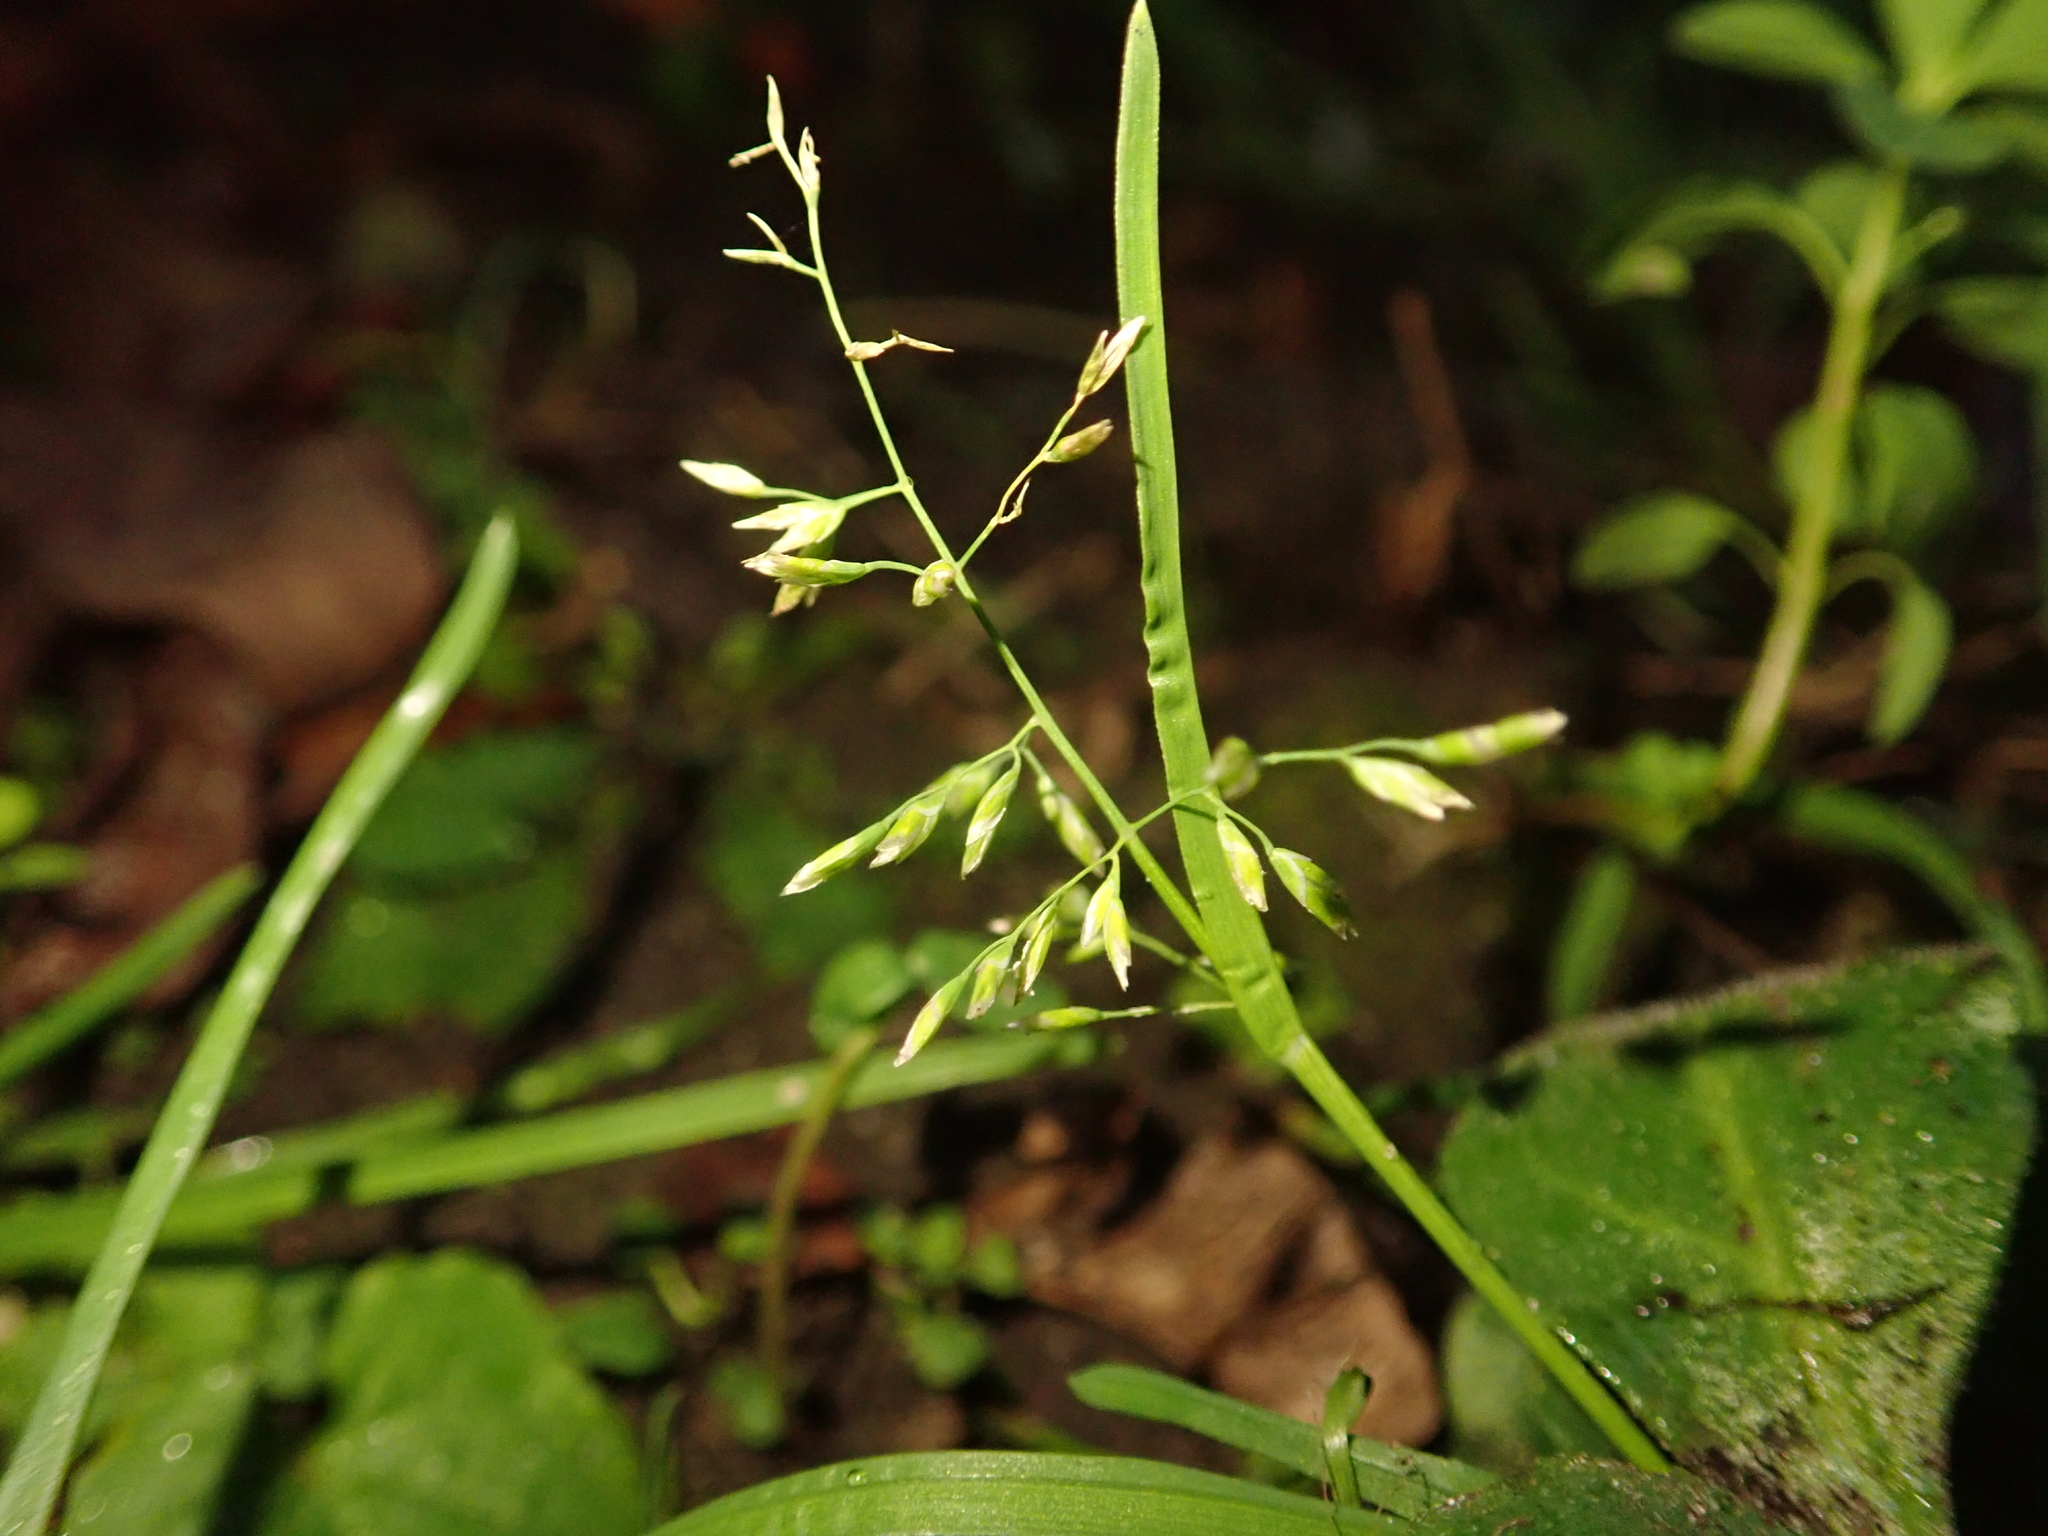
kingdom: Plantae
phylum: Tracheophyta
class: Liliopsida
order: Poales
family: Poaceae
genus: Poa
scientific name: Poa annua
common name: Annual bluegrass
